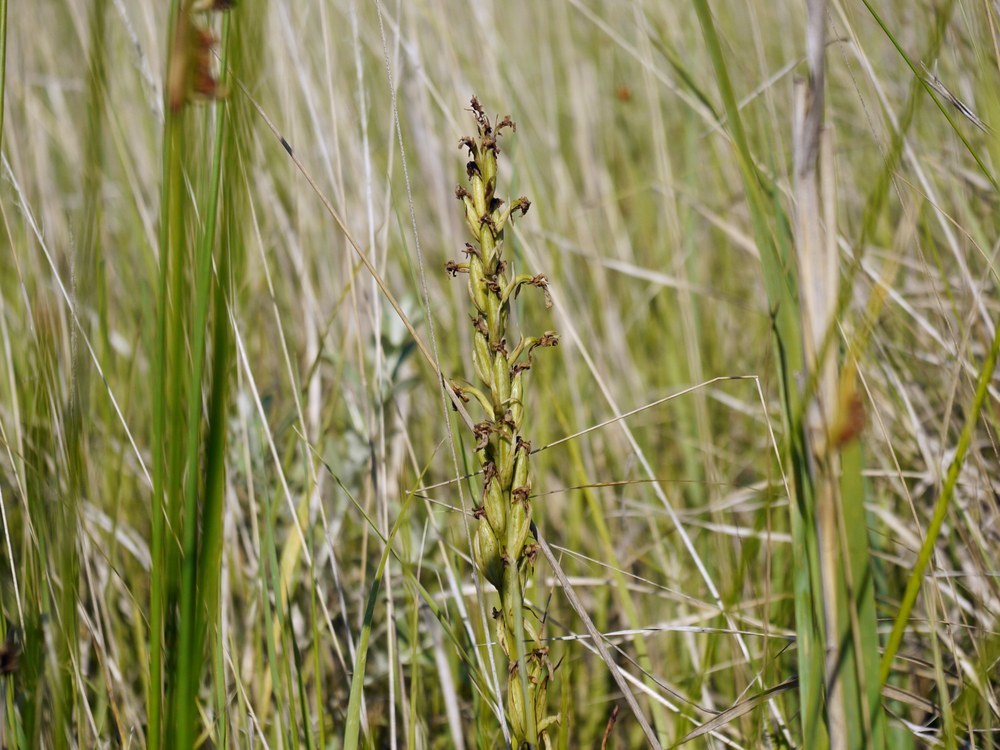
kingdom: Plantae
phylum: Tracheophyta
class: Liliopsida
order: Asparagales
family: Orchidaceae
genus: Anacamptis
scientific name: Anacamptis palustris
